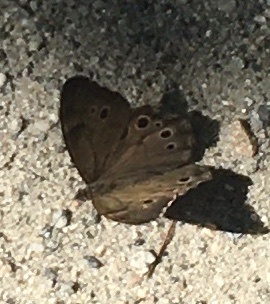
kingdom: Animalia
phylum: Arthropoda
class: Insecta
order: Lepidoptera
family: Nymphalidae
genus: Lethe
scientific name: Lethe anthedon
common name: Northern pearly-eye
